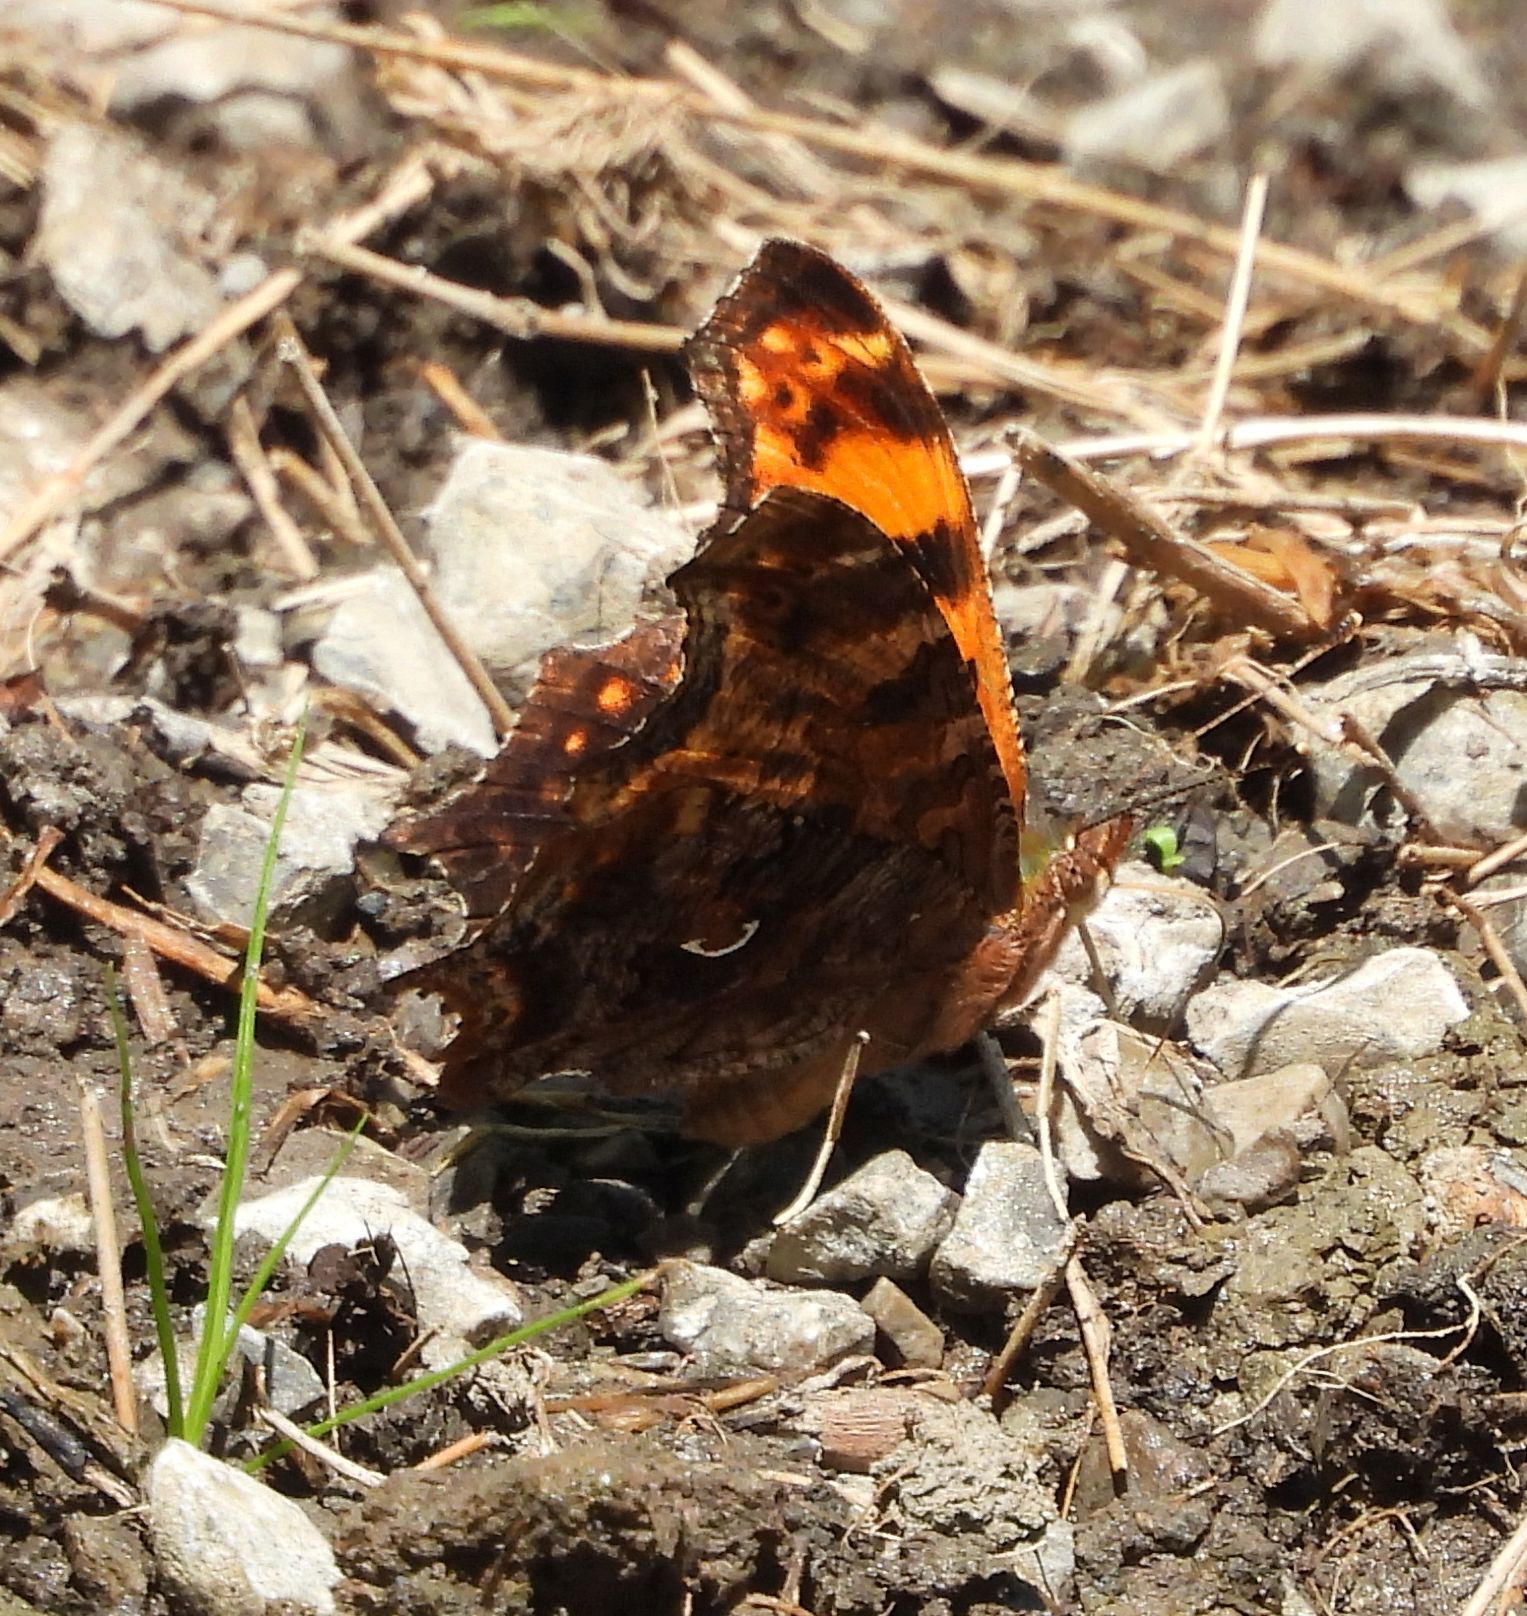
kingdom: Animalia
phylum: Arthropoda
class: Insecta
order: Lepidoptera
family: Nymphalidae
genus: Polygonia
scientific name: Polygonia comma
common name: Eastern comma
